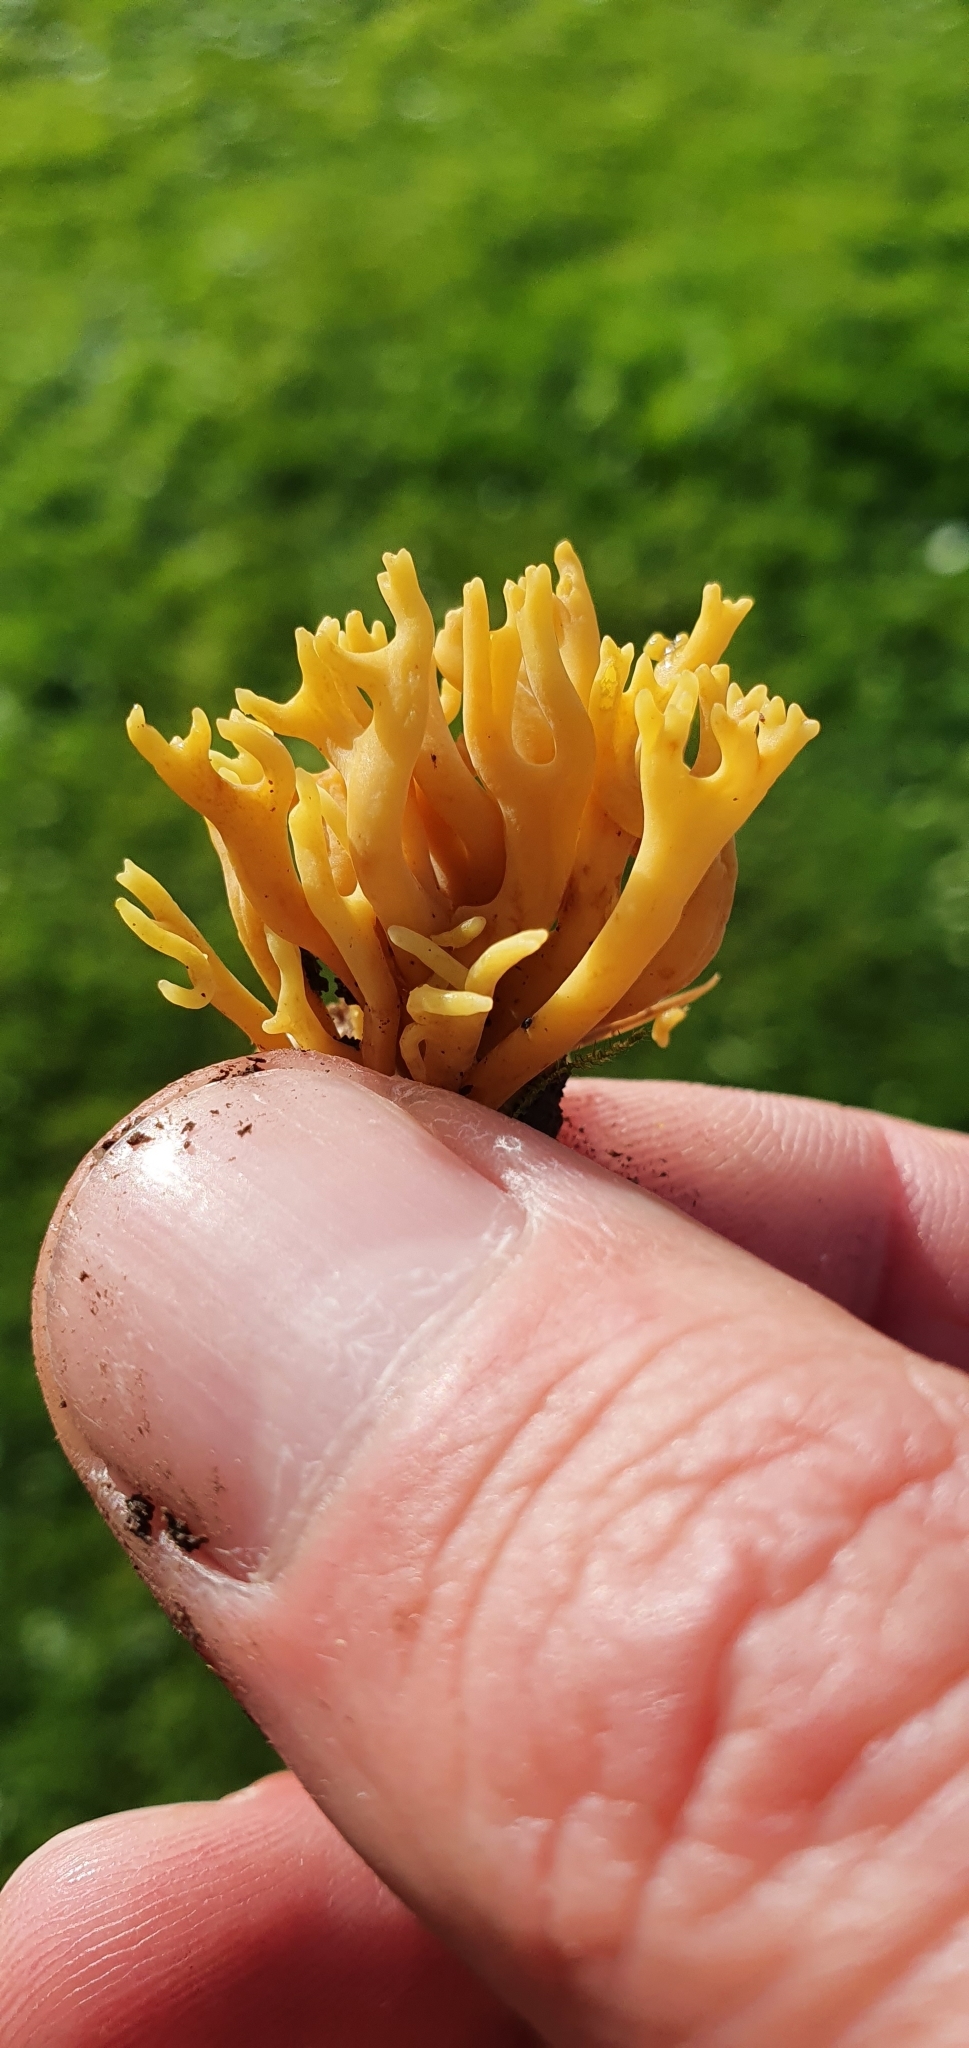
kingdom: Fungi
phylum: Basidiomycota
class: Agaricomycetes
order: Agaricales
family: Clavariaceae
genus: Clavulinopsis
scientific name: Clavulinopsis corniculata
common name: Meadow coral
